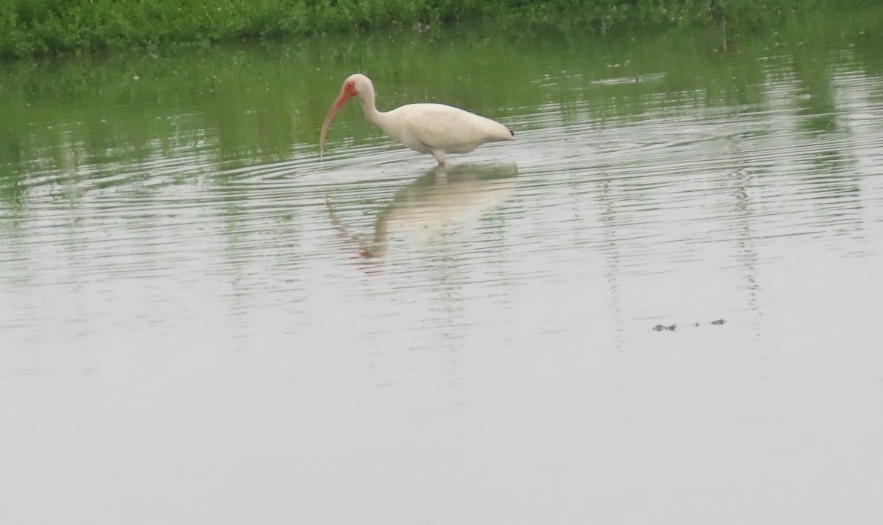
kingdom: Animalia
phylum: Chordata
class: Aves
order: Pelecaniformes
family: Threskiornithidae
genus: Eudocimus
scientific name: Eudocimus albus
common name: White ibis
